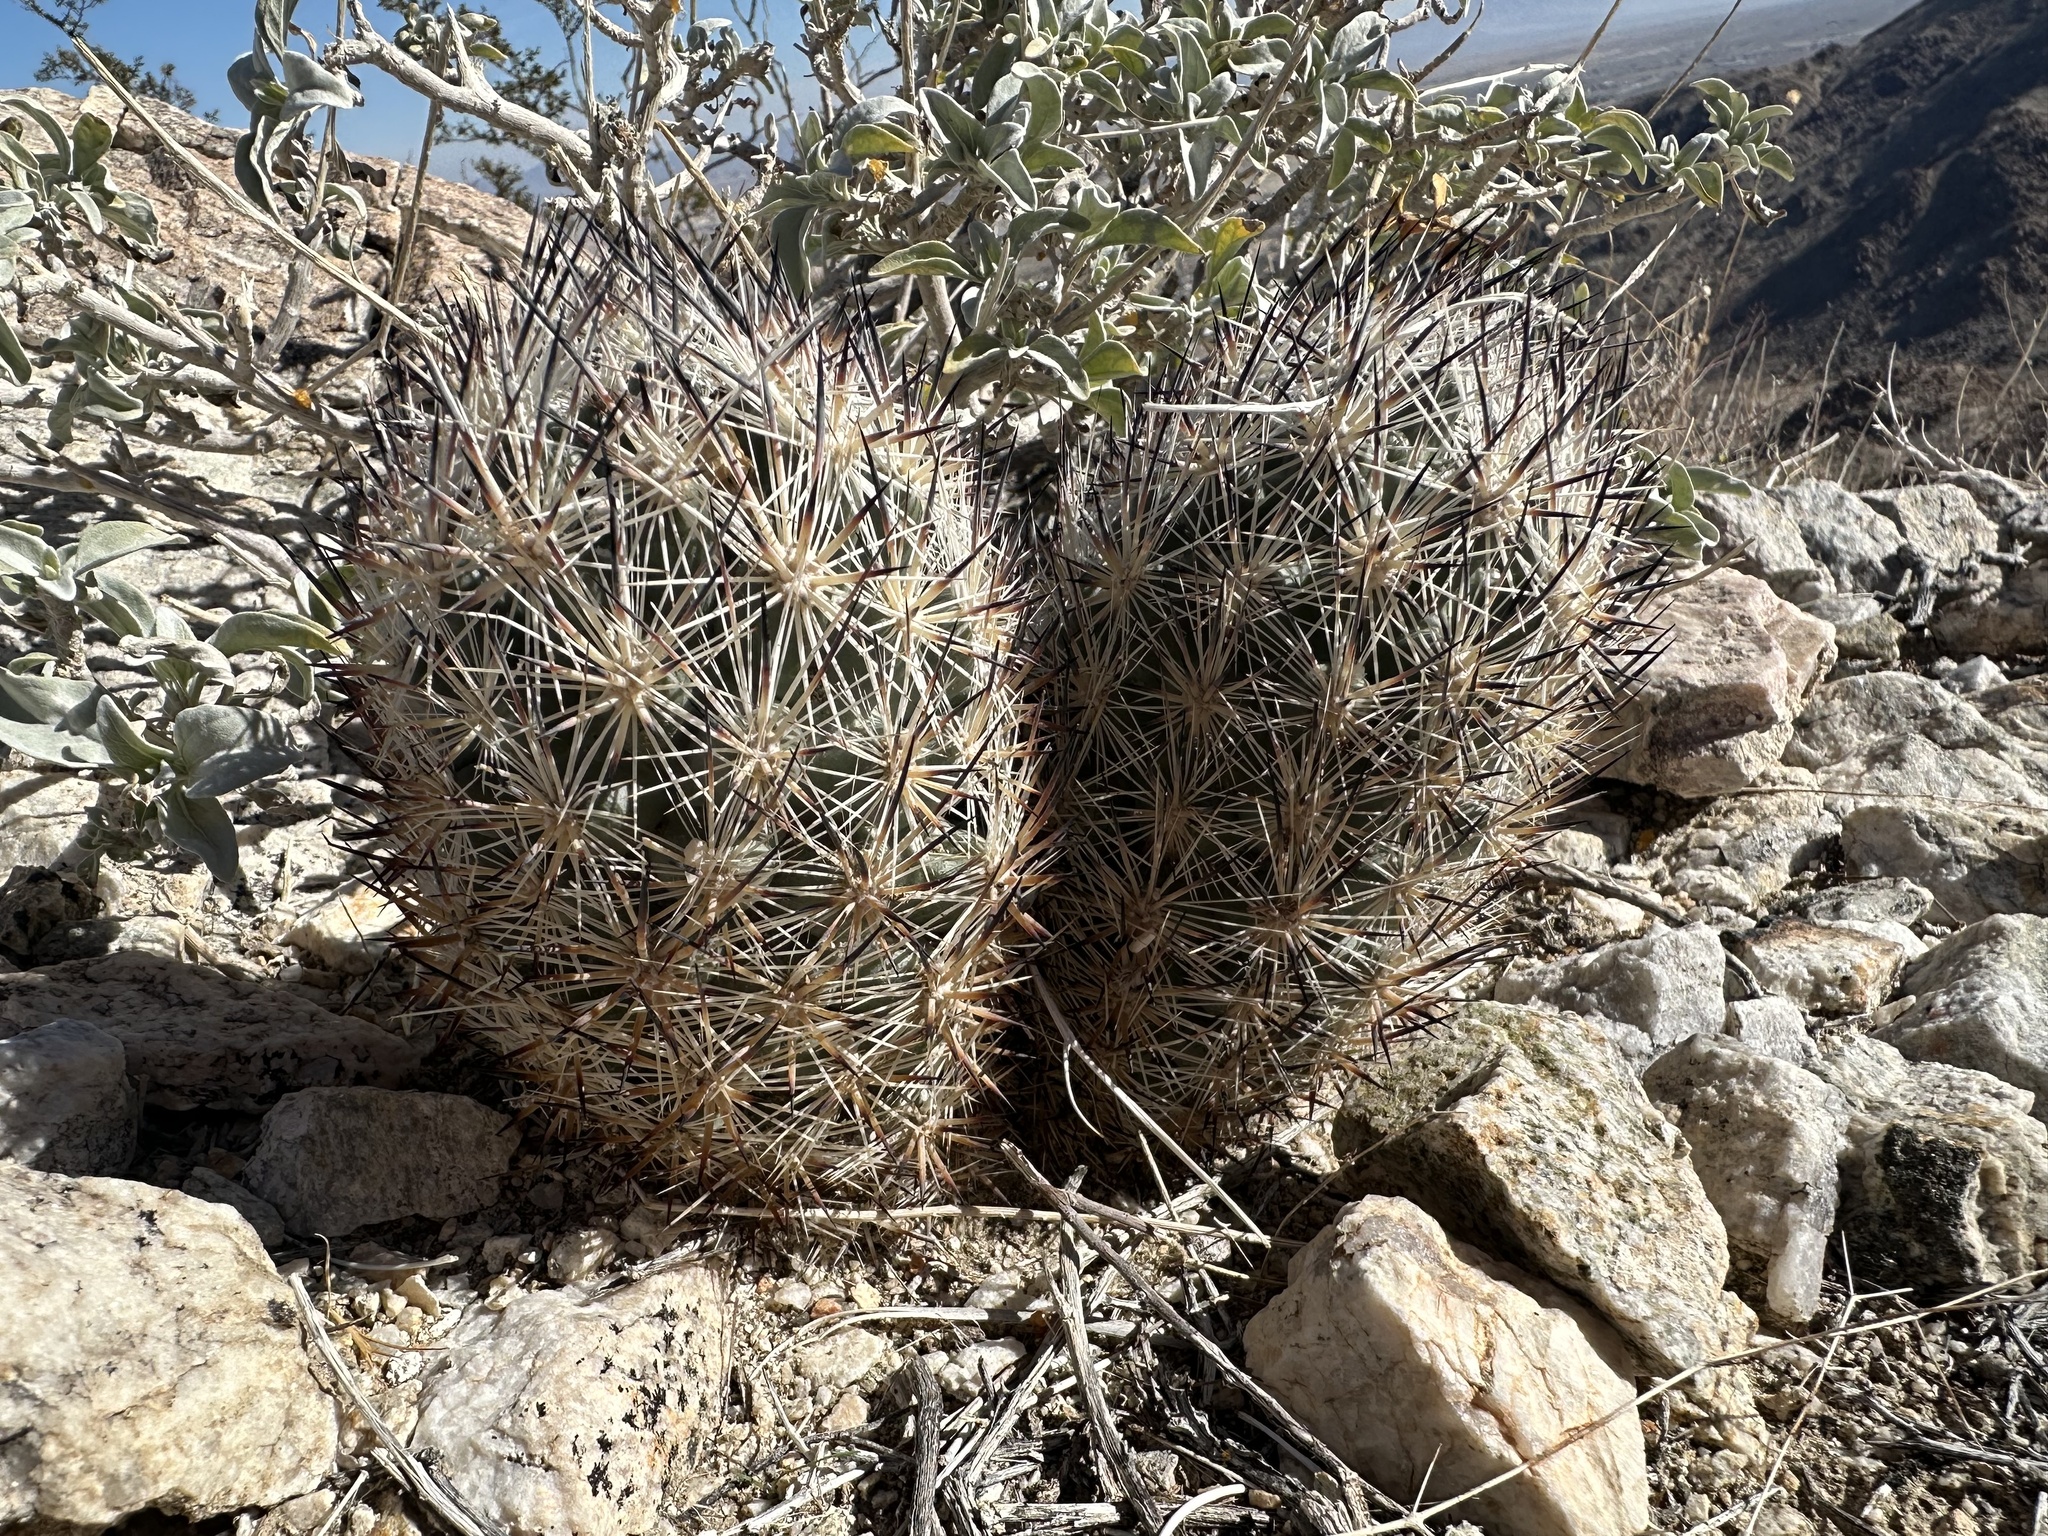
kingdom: Plantae
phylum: Tracheophyta
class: Magnoliopsida
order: Caryophyllales
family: Cactaceae
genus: Pelecyphora
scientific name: Pelecyphora alversonii
